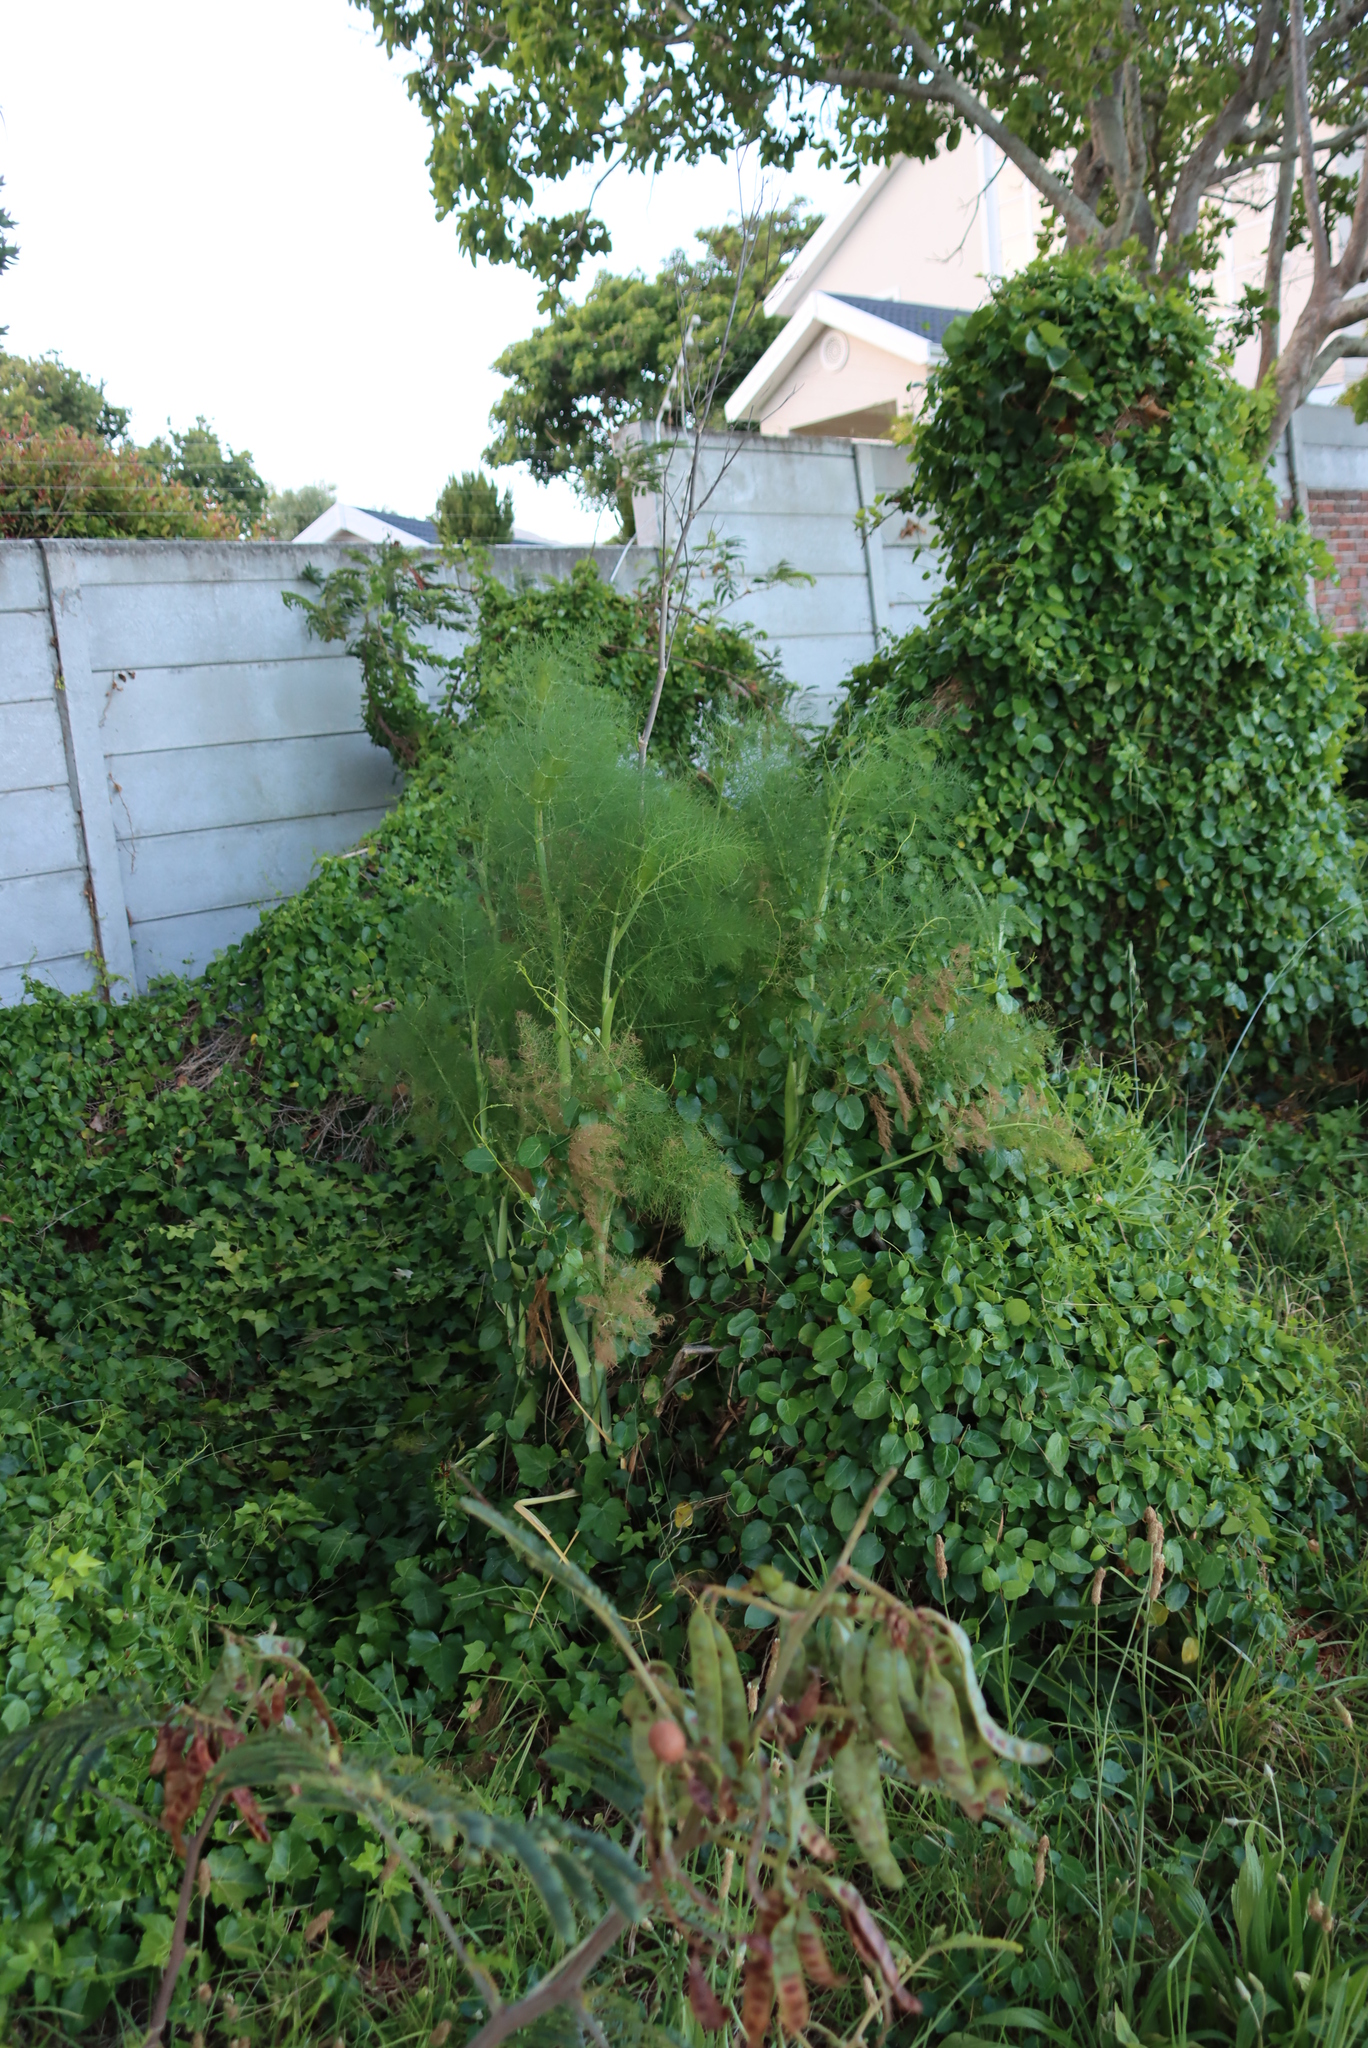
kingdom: Plantae
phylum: Tracheophyta
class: Magnoliopsida
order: Apiales
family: Apiaceae
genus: Foeniculum
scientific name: Foeniculum vulgare
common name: Fennel
